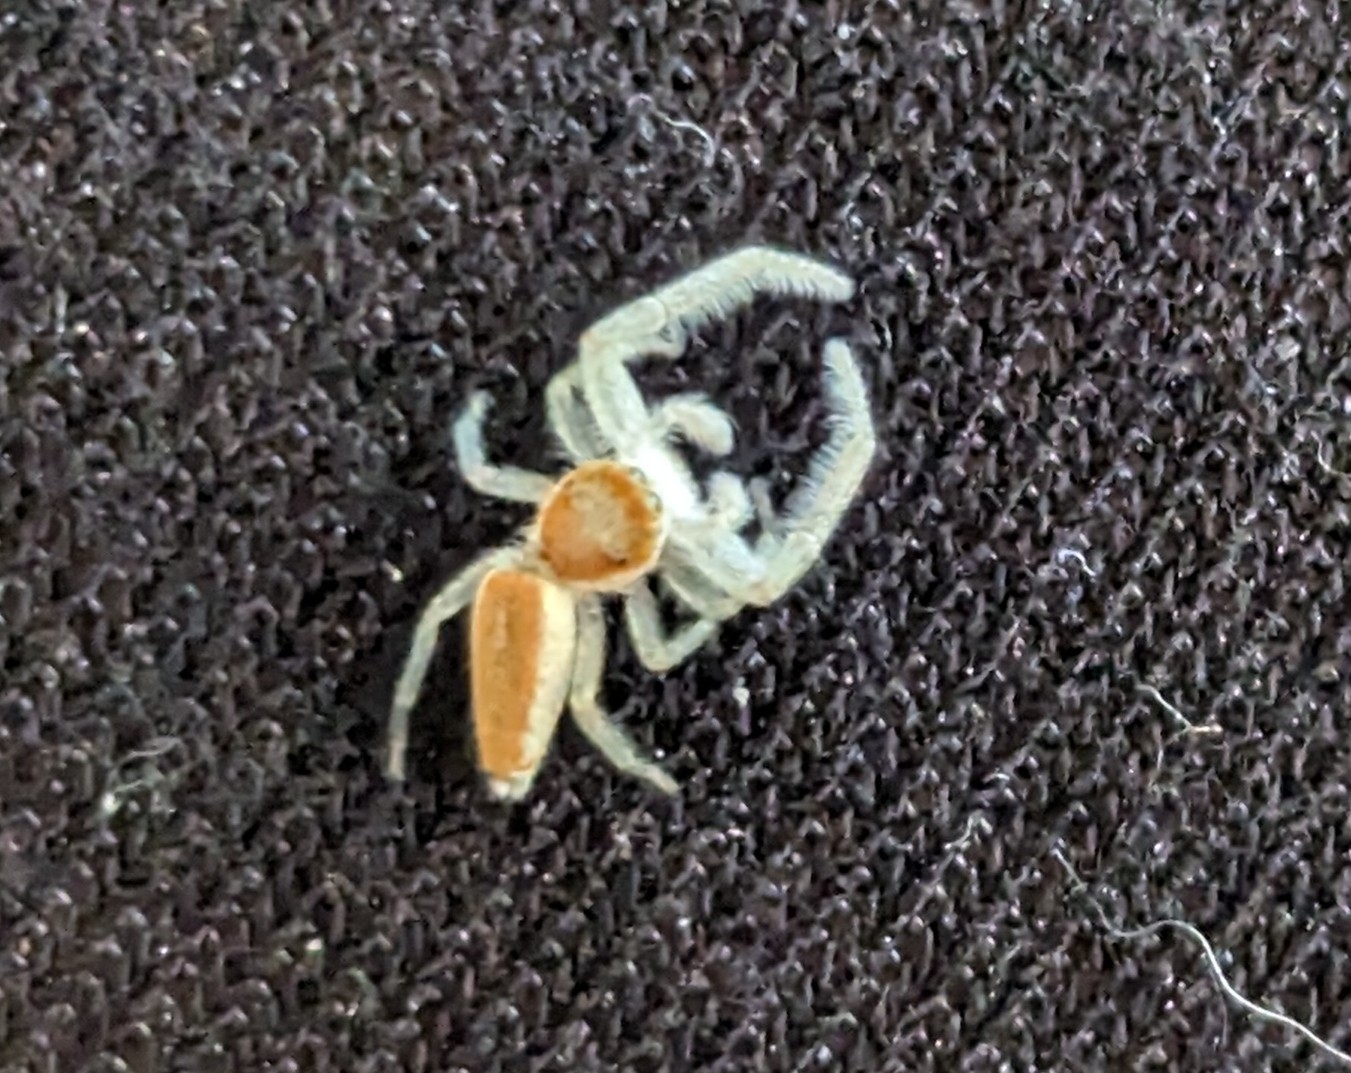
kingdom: Animalia
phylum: Arthropoda
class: Arachnida
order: Araneae
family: Salticidae
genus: Hentzia
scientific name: Hentzia mitrata
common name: White-jawed jumping spider
